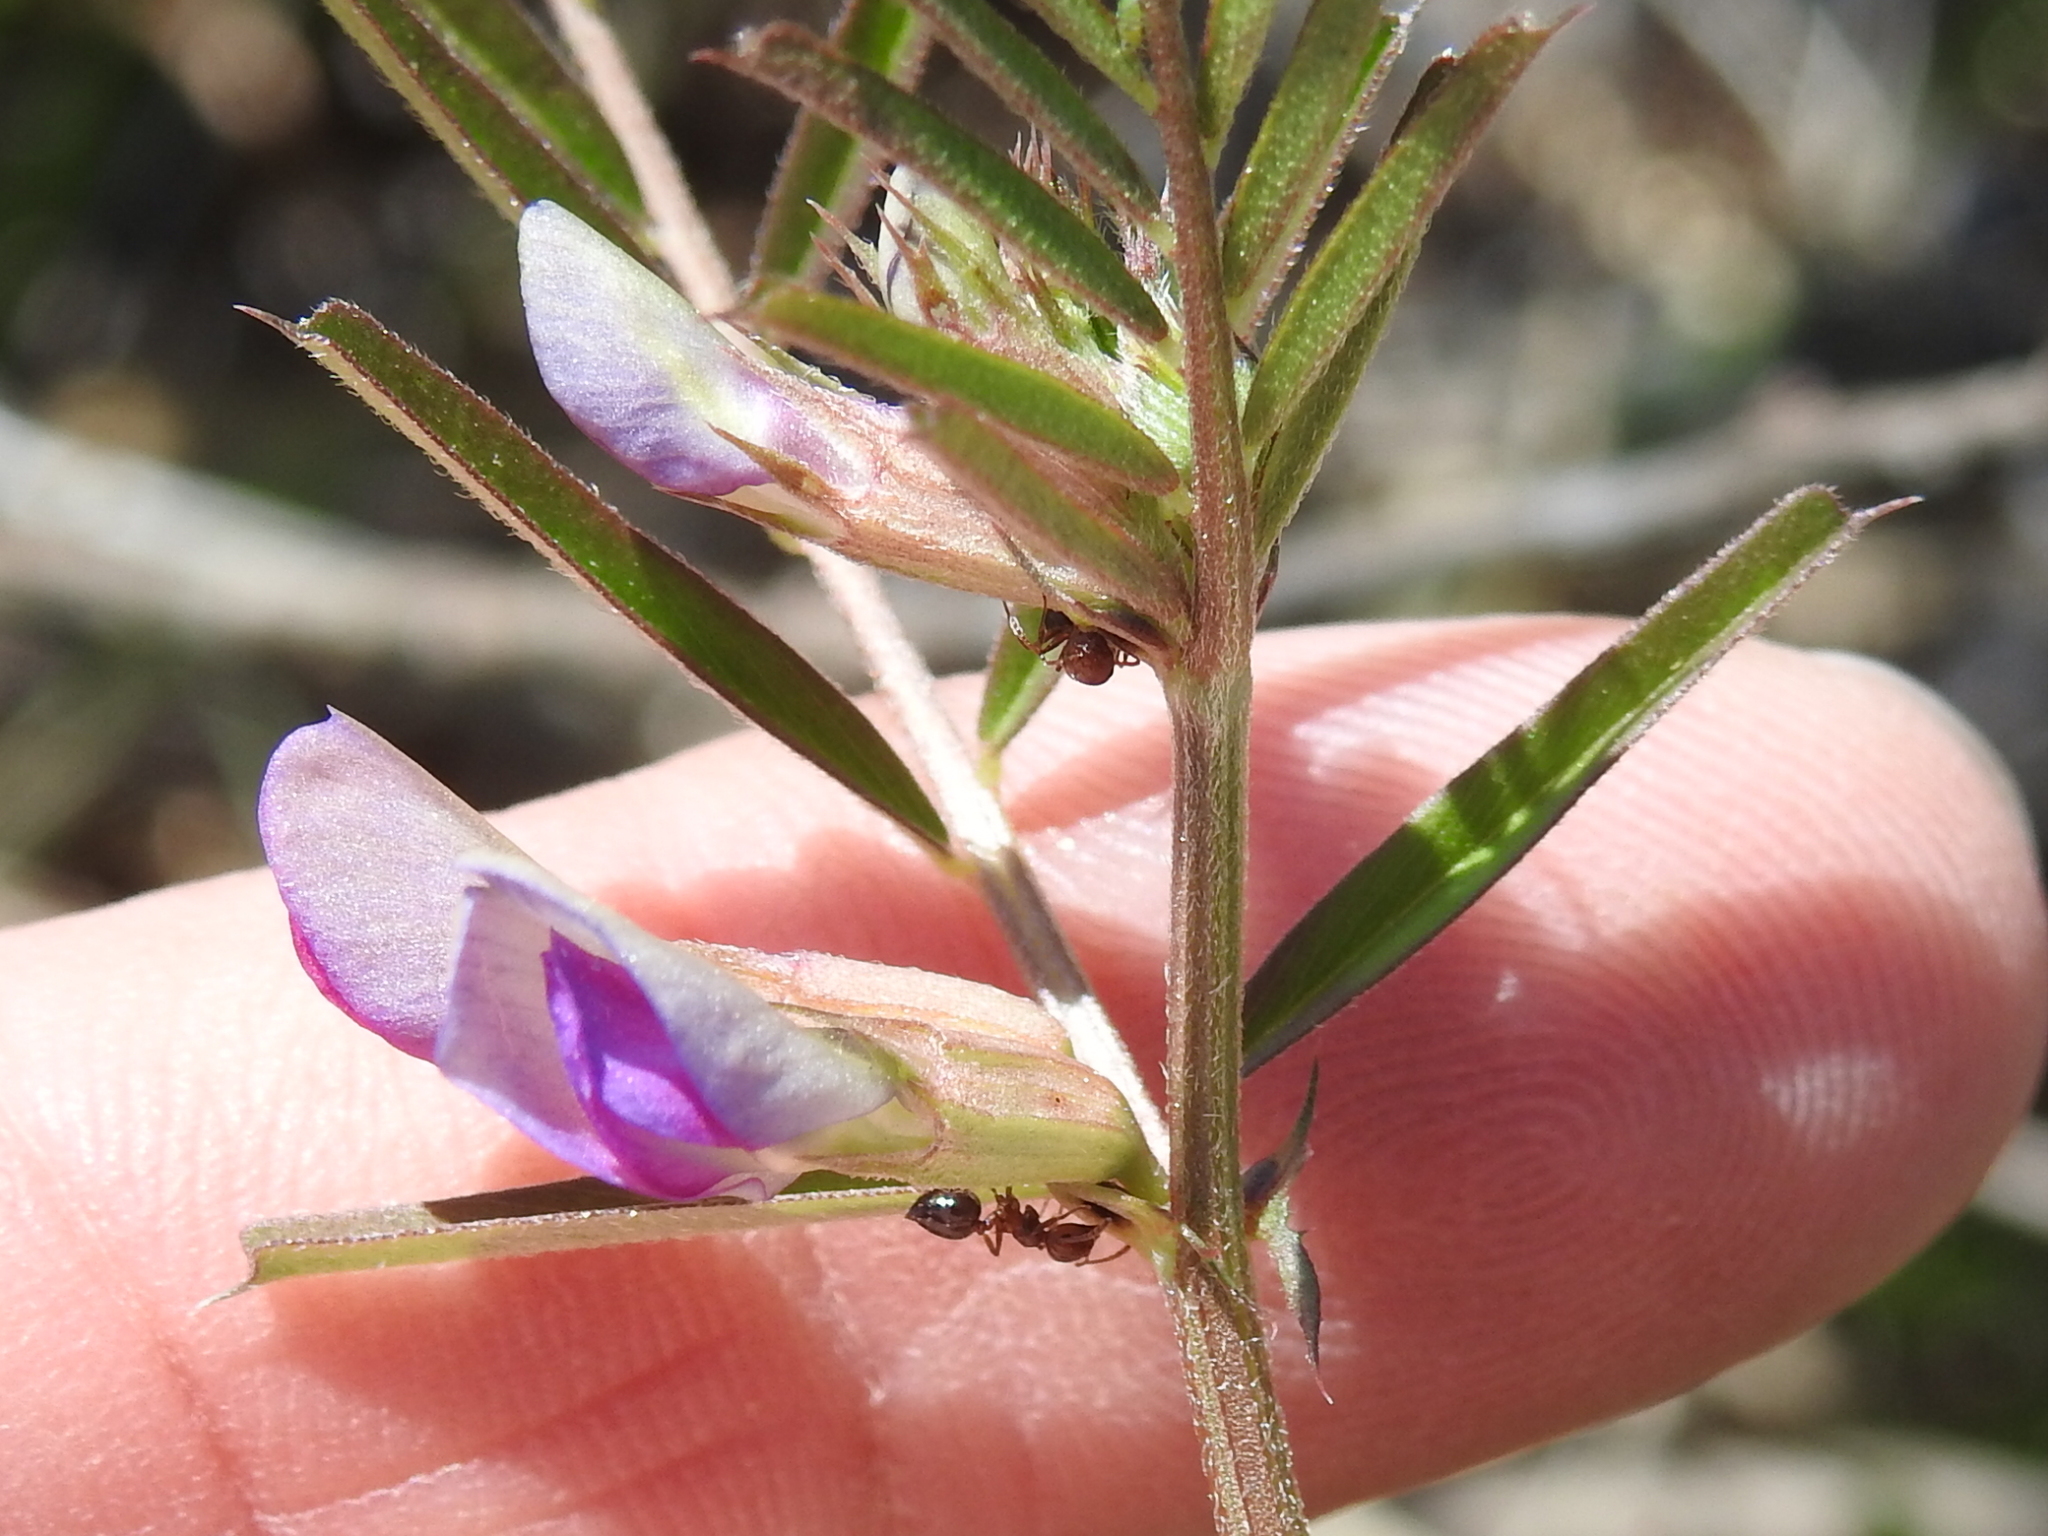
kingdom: Plantae
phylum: Tracheophyta
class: Magnoliopsida
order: Fabales
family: Fabaceae
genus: Vicia
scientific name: Vicia sativa
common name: Garden vetch
